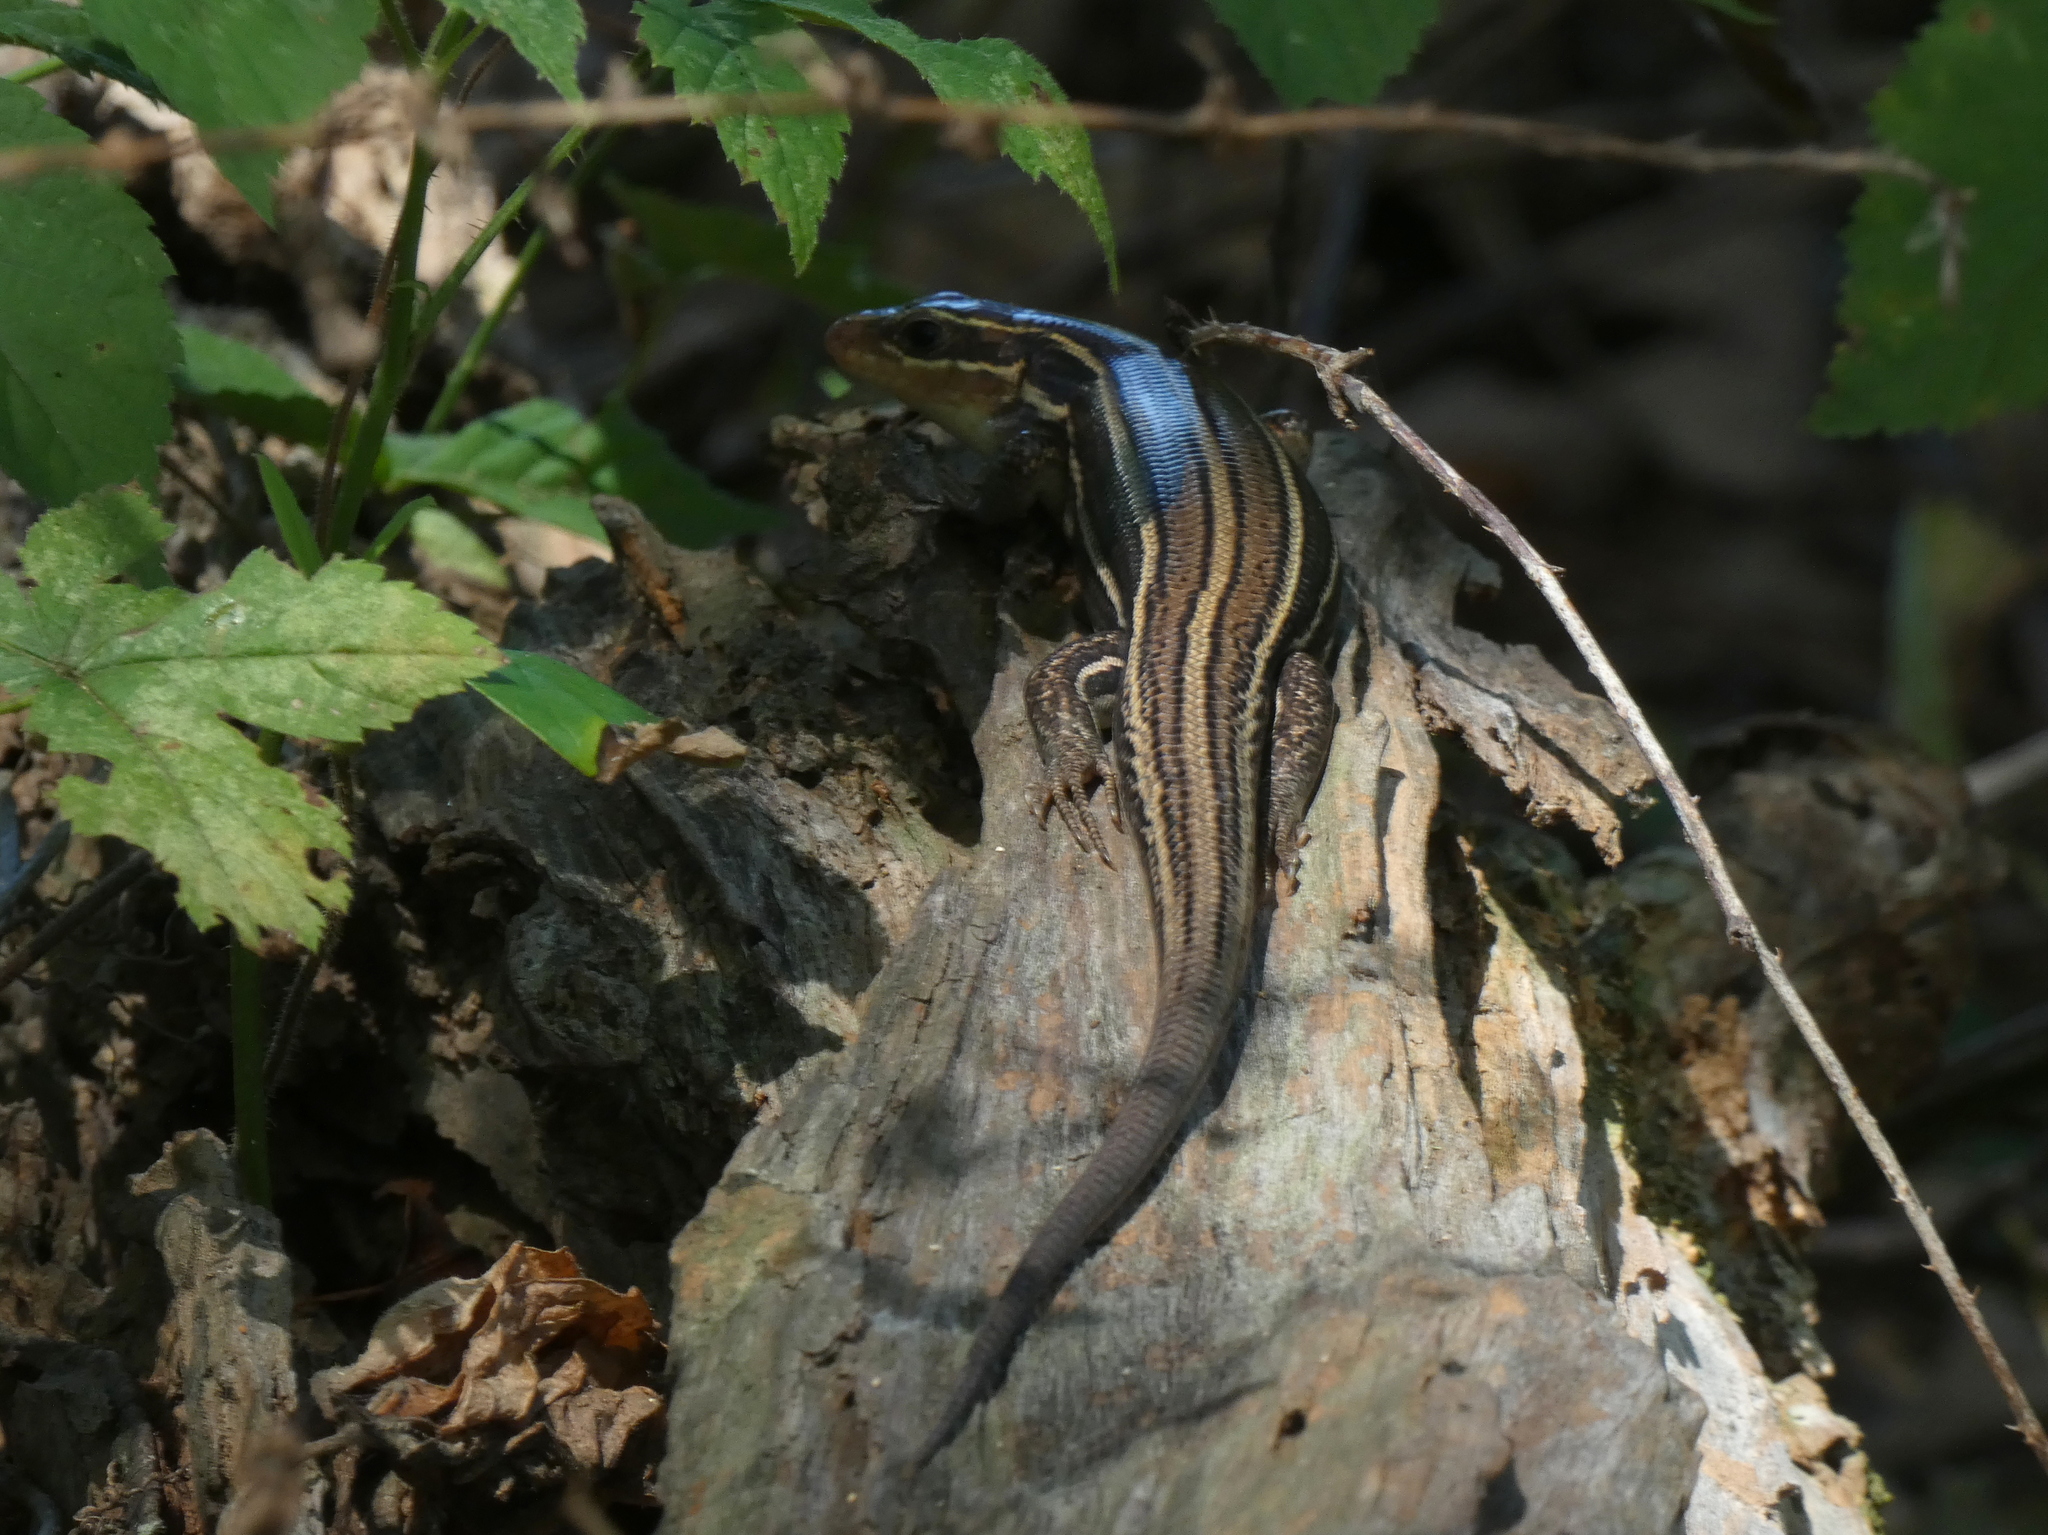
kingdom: Animalia
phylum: Chordata
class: Squamata
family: Scincidae
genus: Plestiodon
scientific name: Plestiodon laticeps
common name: Broadhead skink
